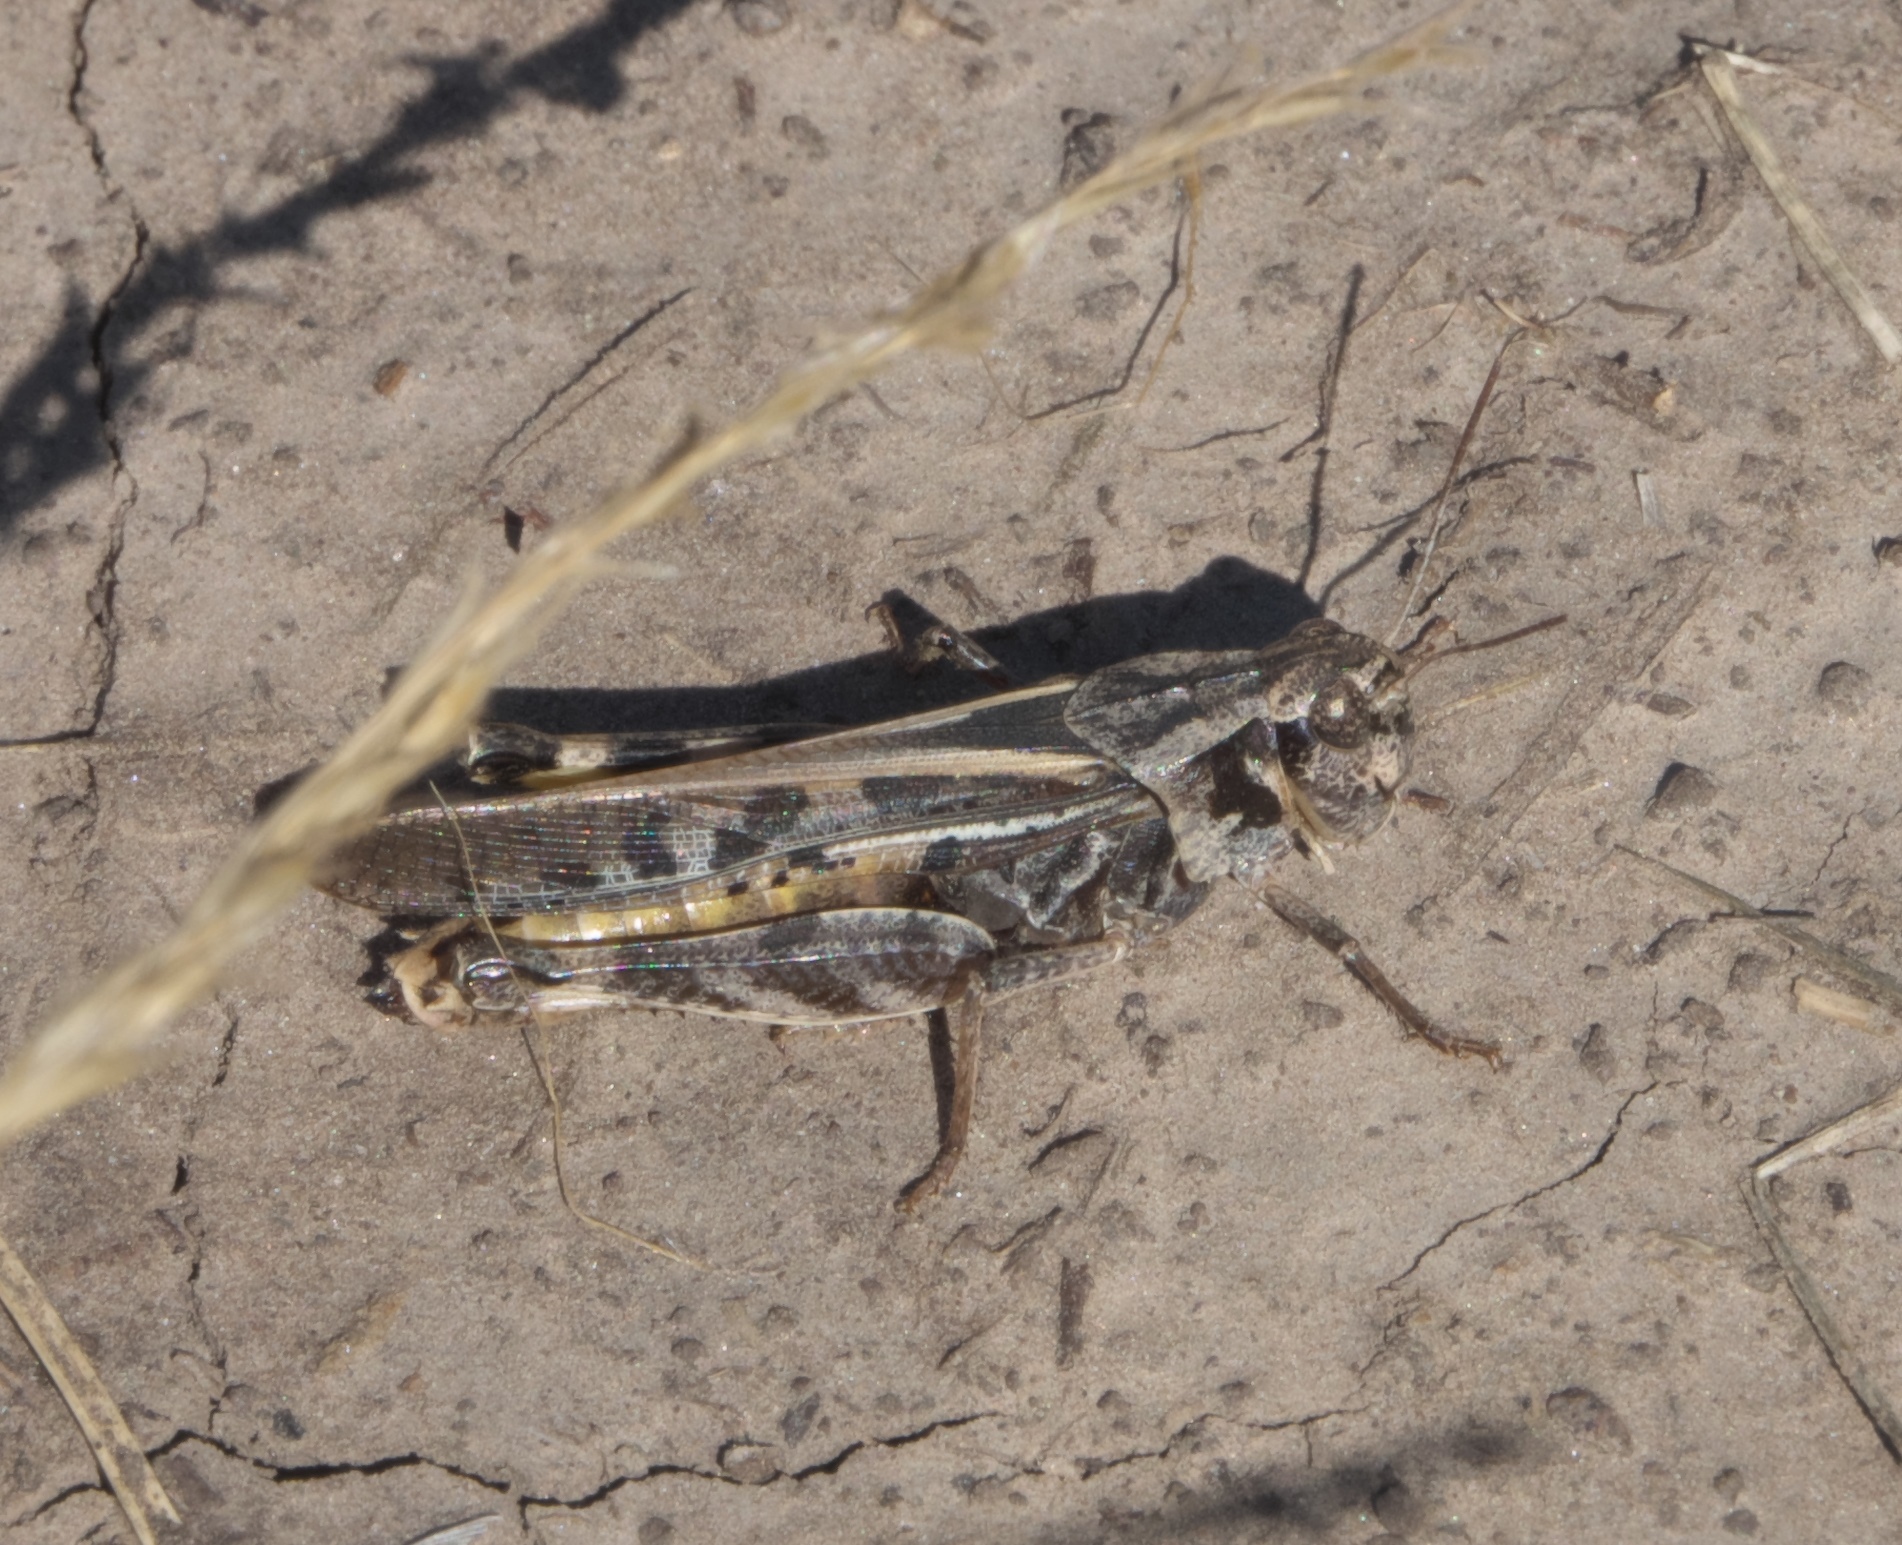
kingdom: Animalia
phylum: Arthropoda
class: Insecta
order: Orthoptera
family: Acrididae
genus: Camnula
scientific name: Camnula pellucida
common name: Clear-winged grasshopper
